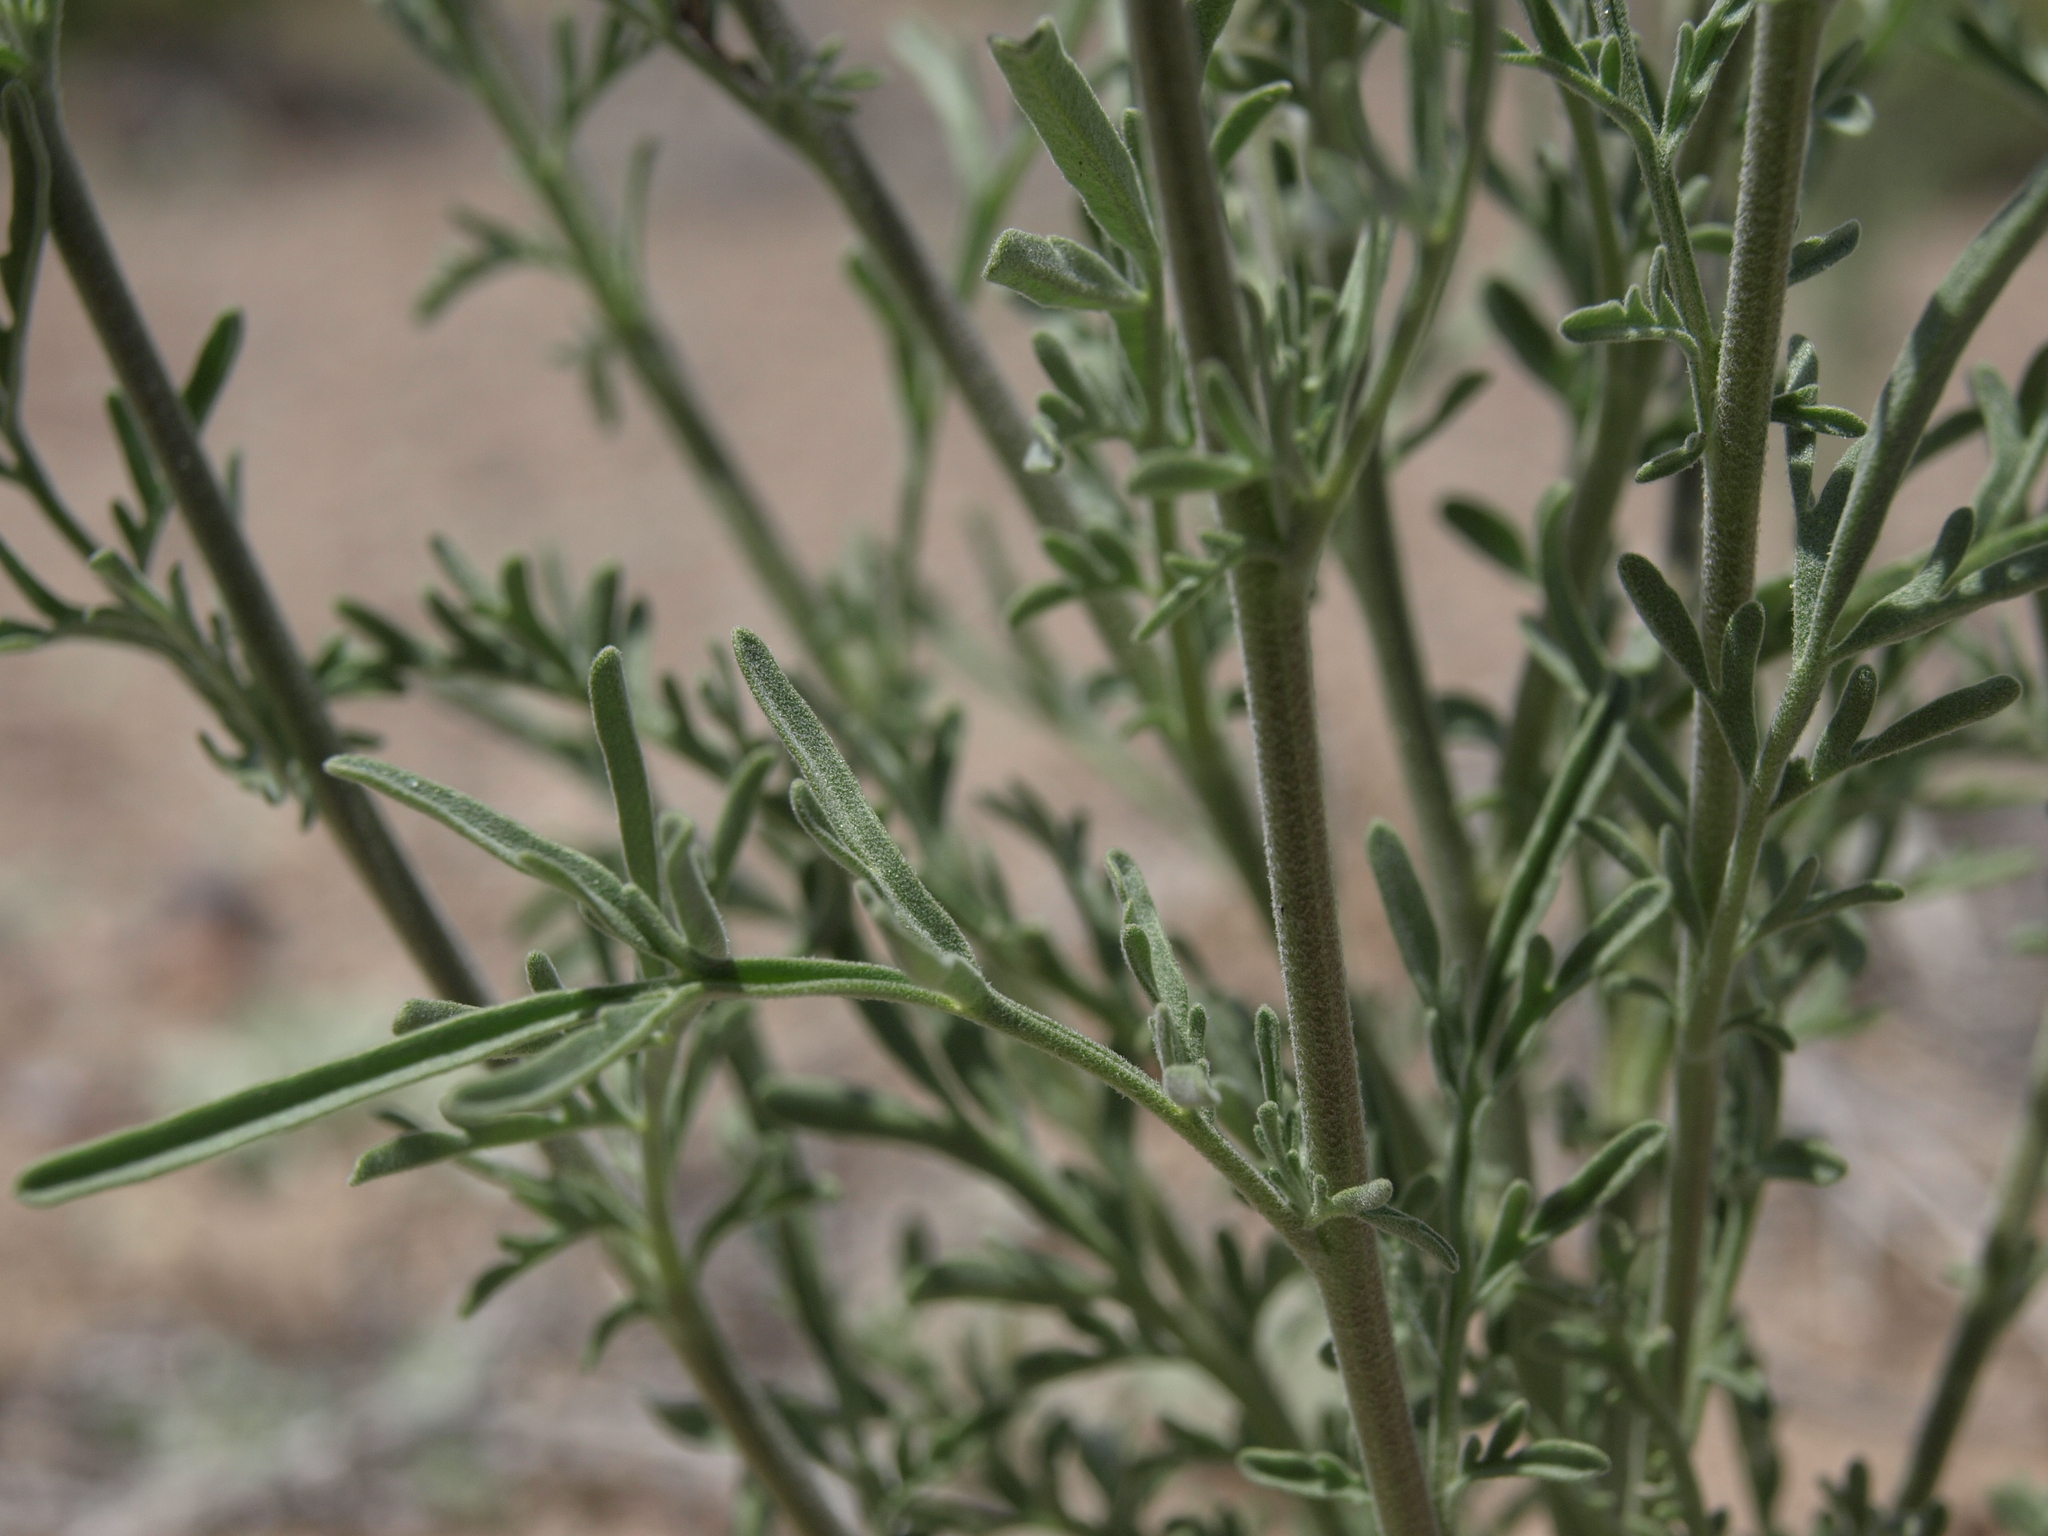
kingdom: Plantae
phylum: Tracheophyta
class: Magnoliopsida
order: Brassicales
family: Brassicaceae
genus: Descurainia
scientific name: Descurainia pinnata
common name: Western tansy mustard
